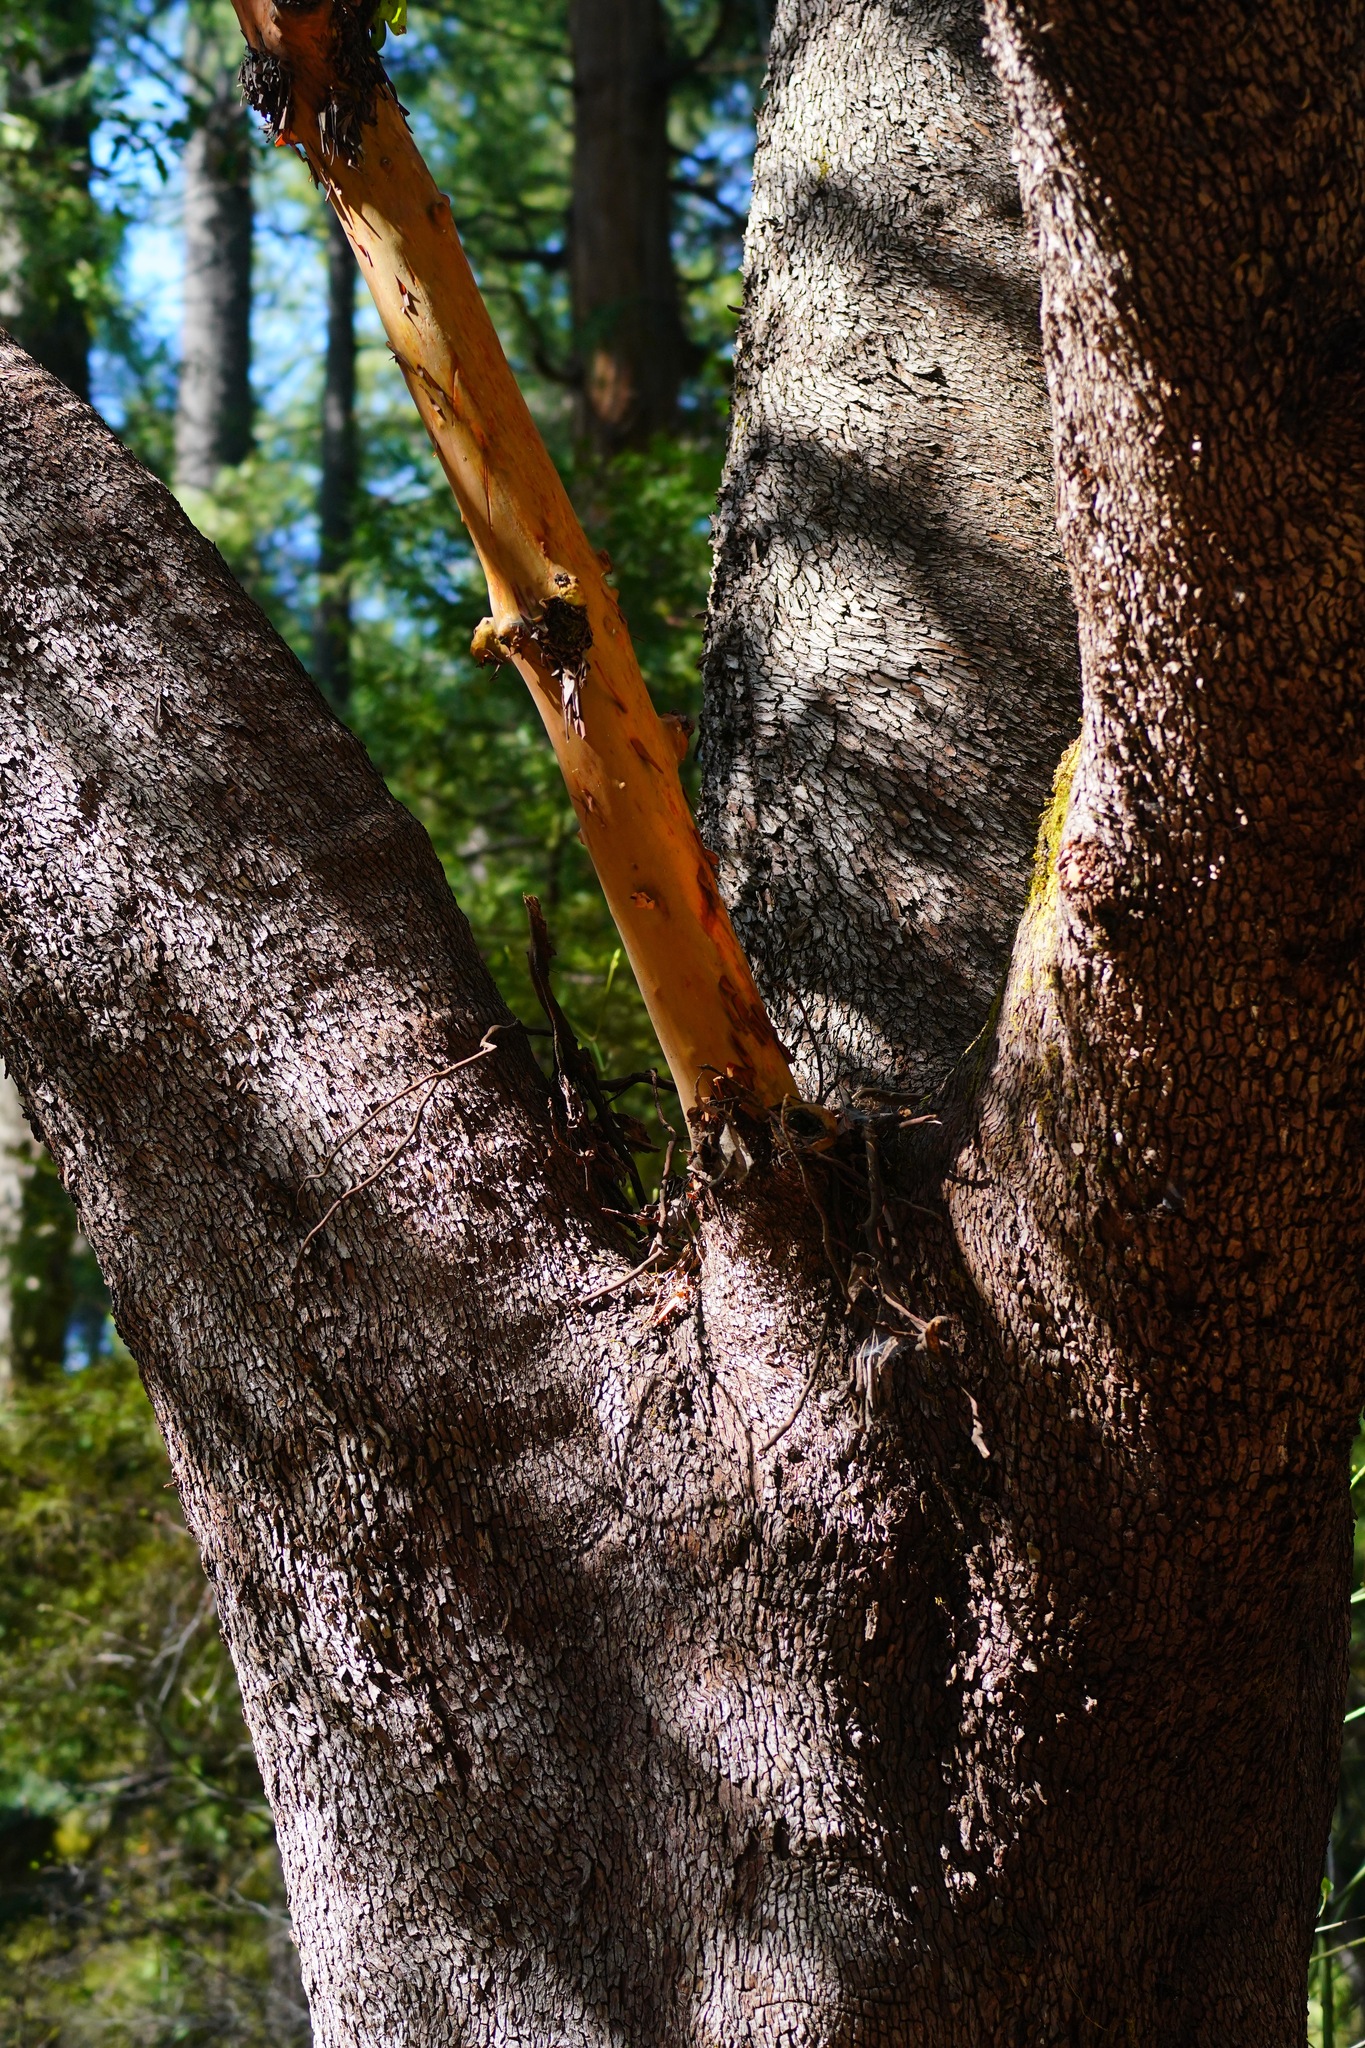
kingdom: Plantae
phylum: Tracheophyta
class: Magnoliopsida
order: Ericales
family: Ericaceae
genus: Arbutus
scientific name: Arbutus menziesii
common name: Pacific madrone
